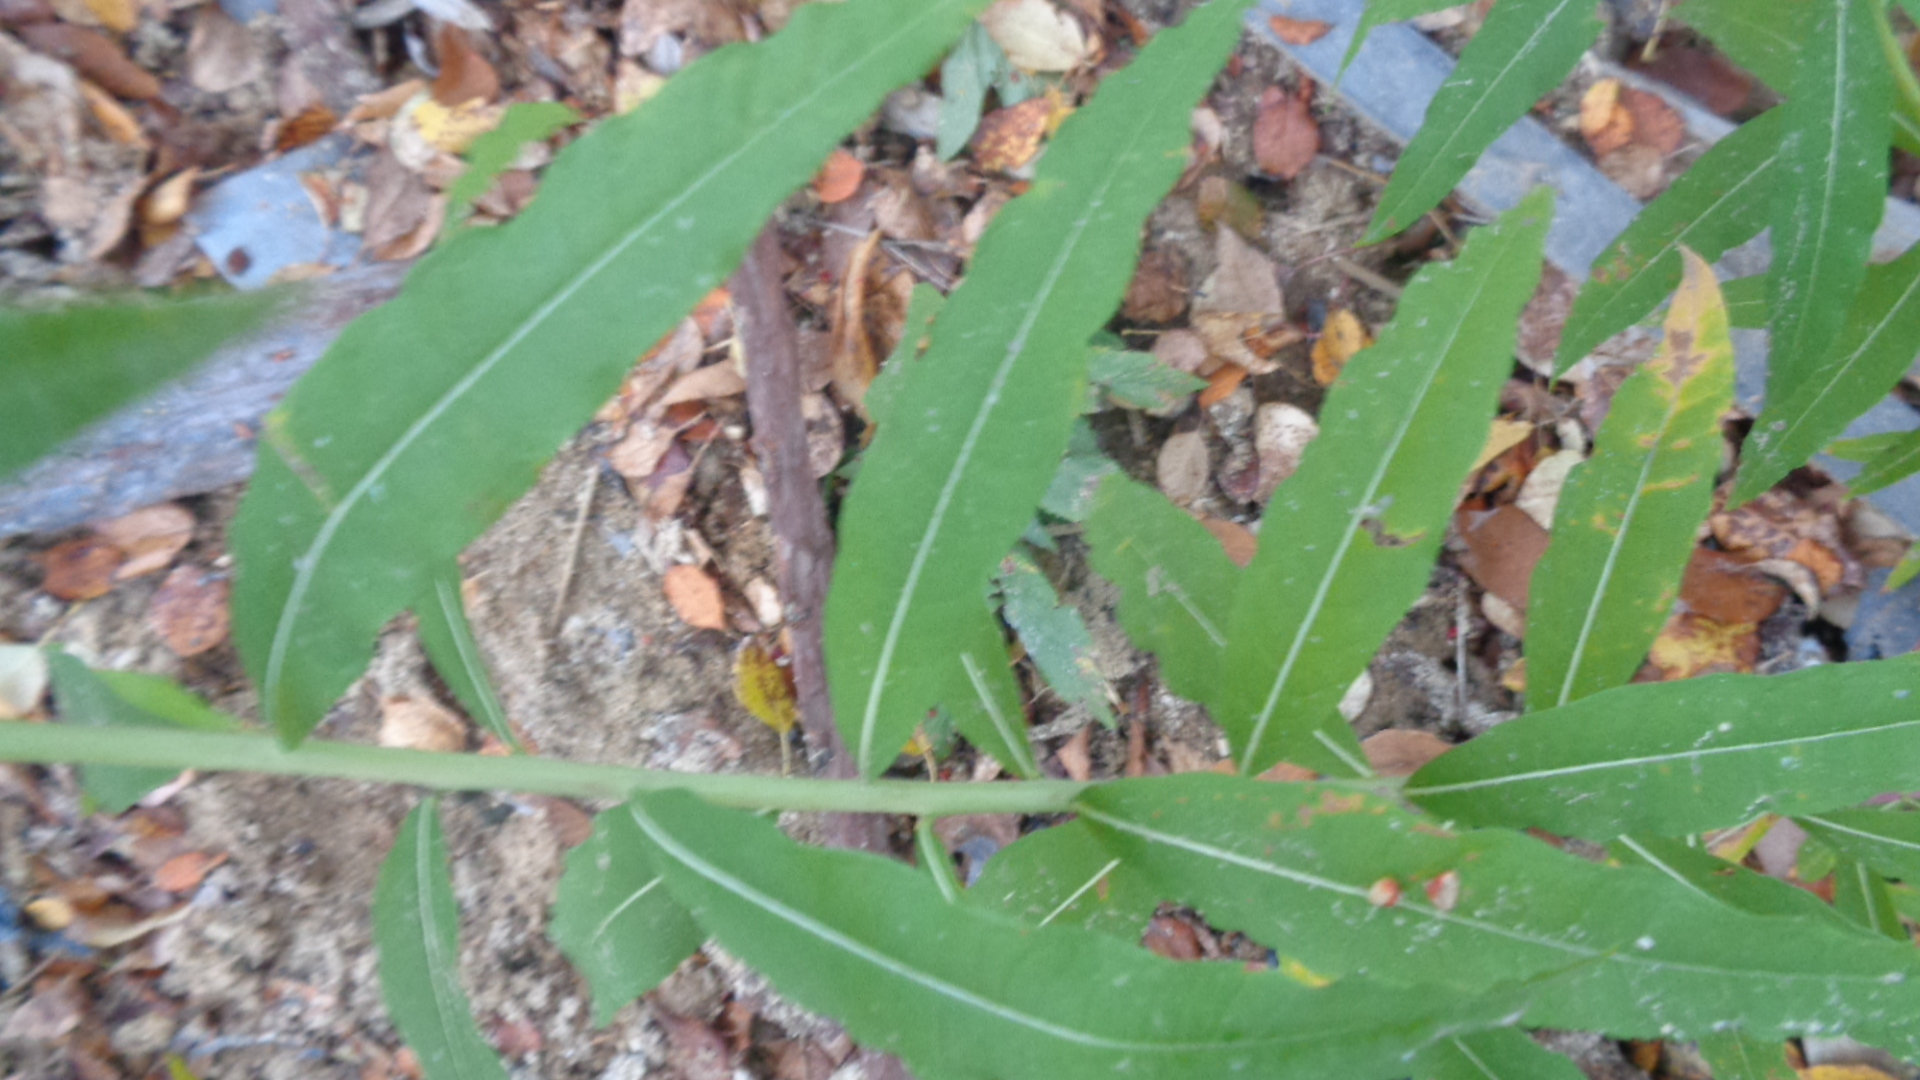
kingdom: Plantae
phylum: Tracheophyta
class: Magnoliopsida
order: Myrtales
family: Onagraceae
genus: Chamaenerion
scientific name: Chamaenerion angustifolium
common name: Fireweed
